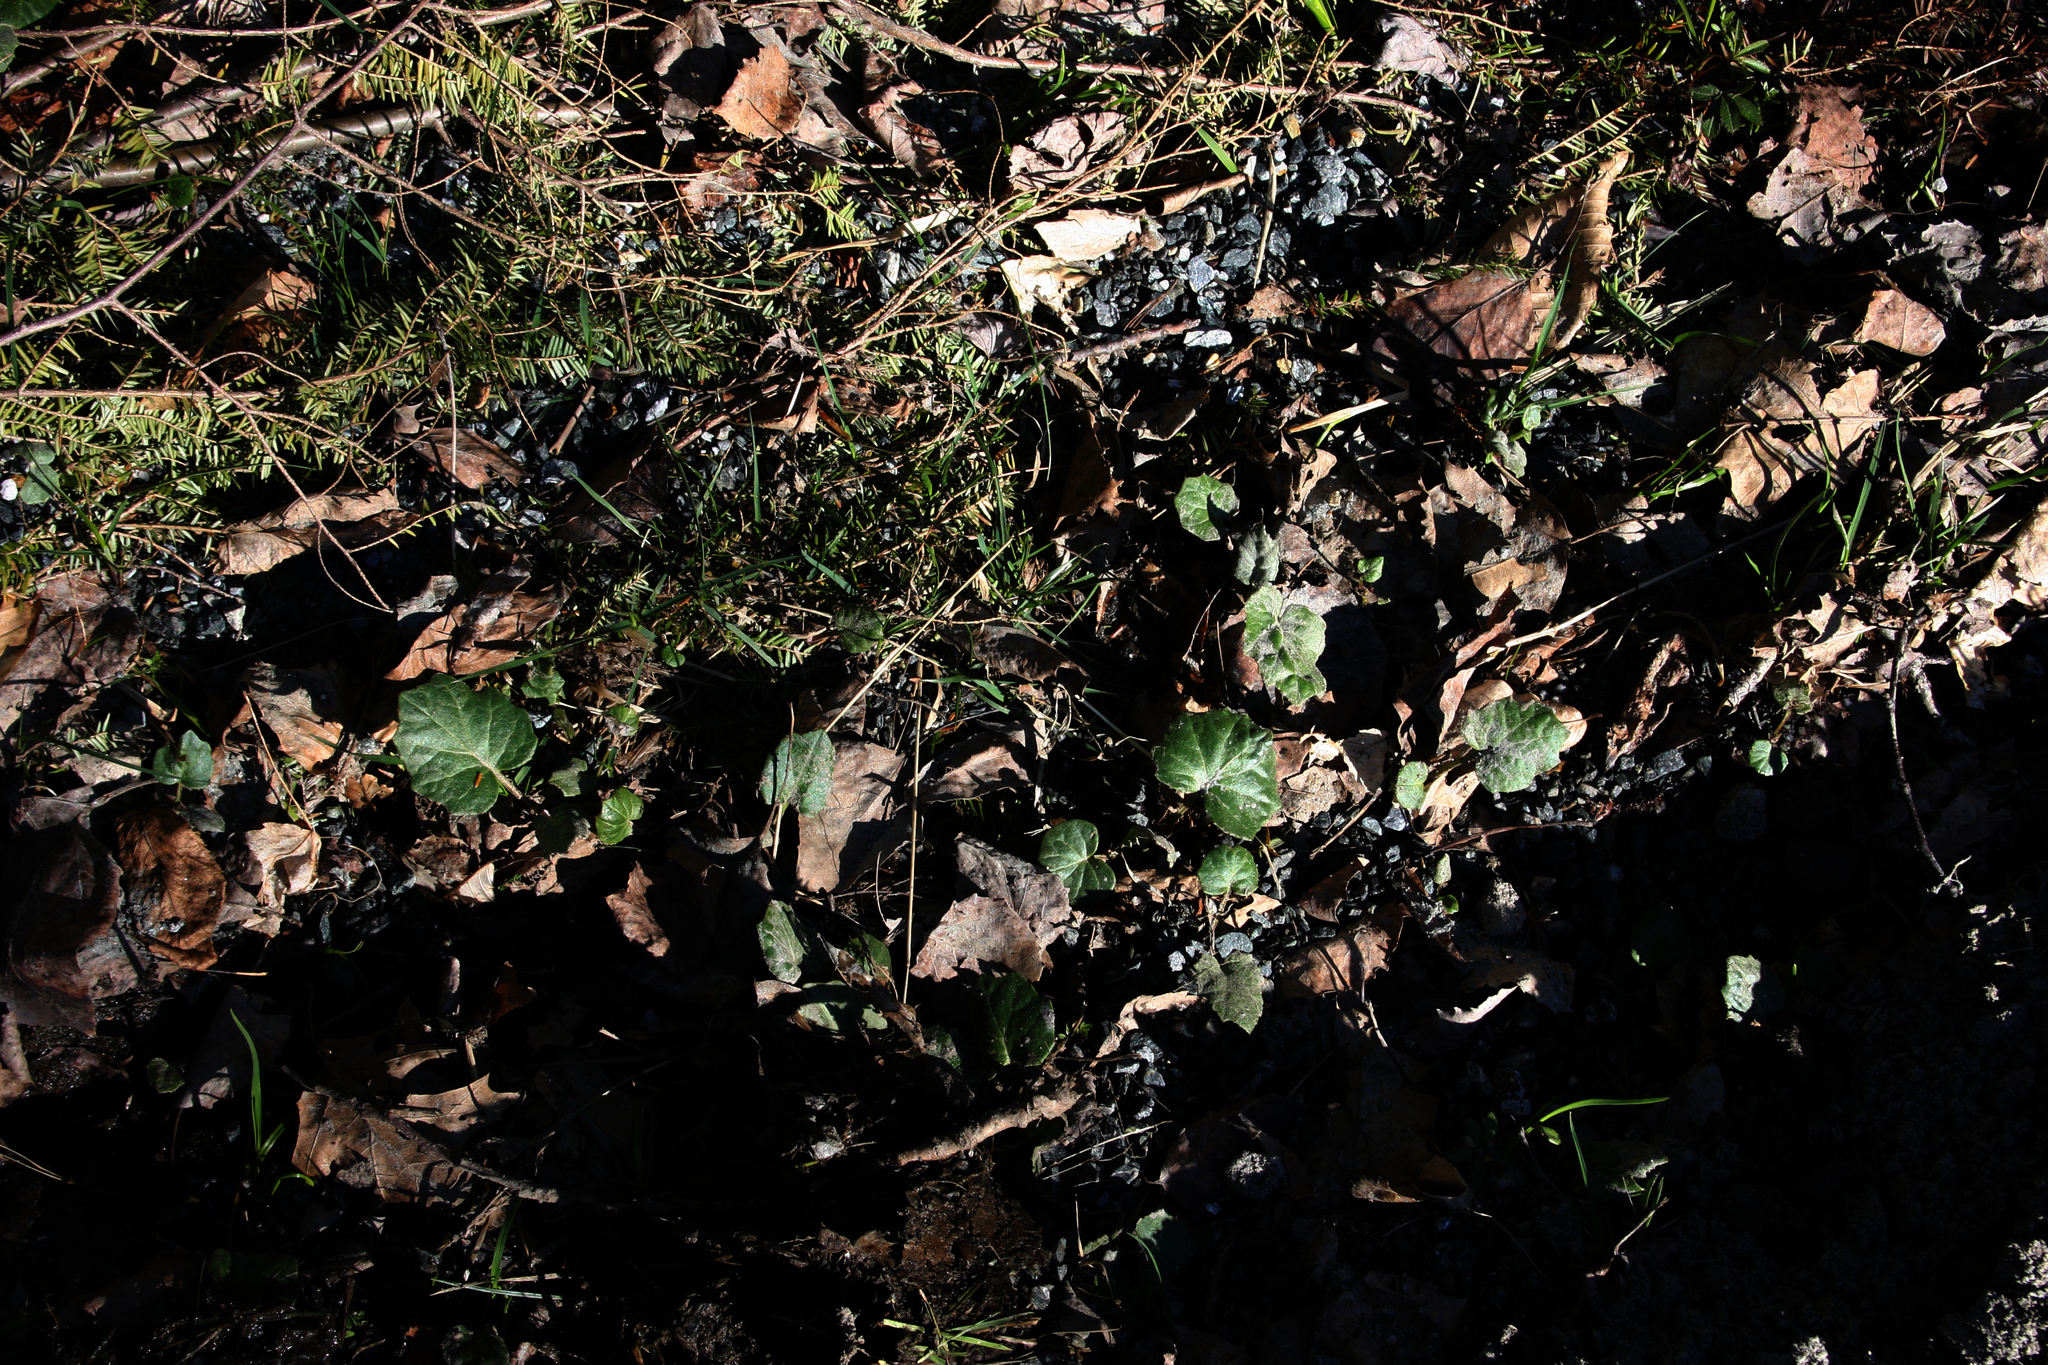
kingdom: Plantae
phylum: Tracheophyta
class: Magnoliopsida
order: Asterales
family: Asteraceae
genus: Tussilago
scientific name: Tussilago farfara
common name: Coltsfoot
